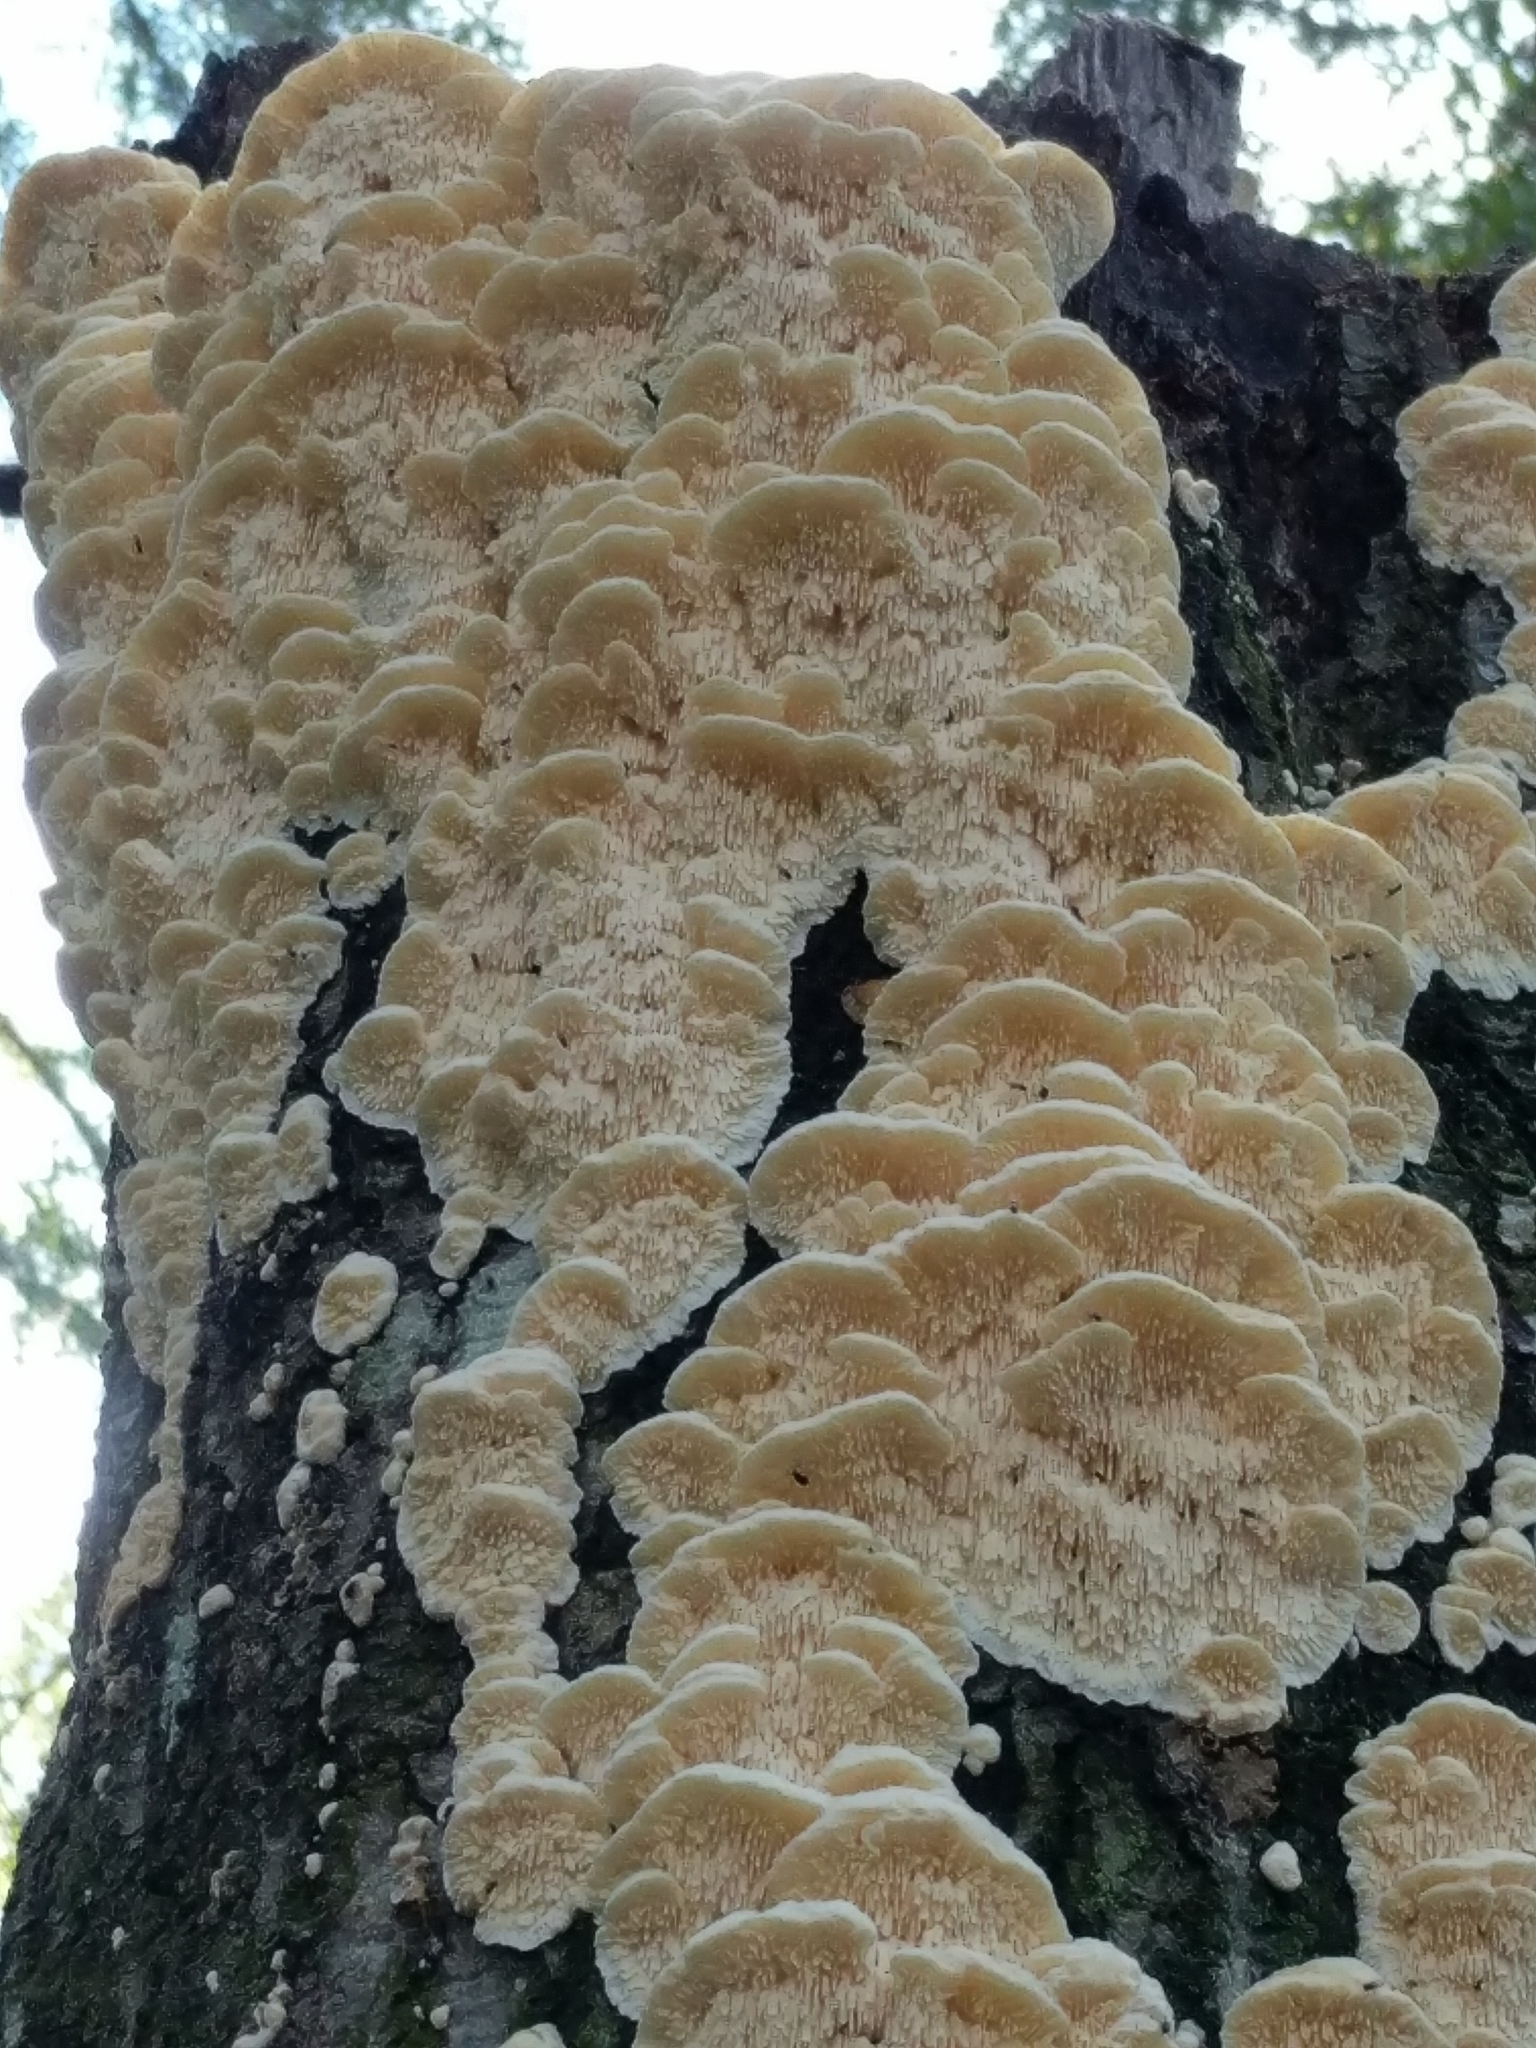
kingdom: Fungi
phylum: Basidiomycota
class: Agaricomycetes
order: Polyporales
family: Meruliaceae
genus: Irpiciporus
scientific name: Irpiciporus pachyodon
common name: Marshmallow polypore
